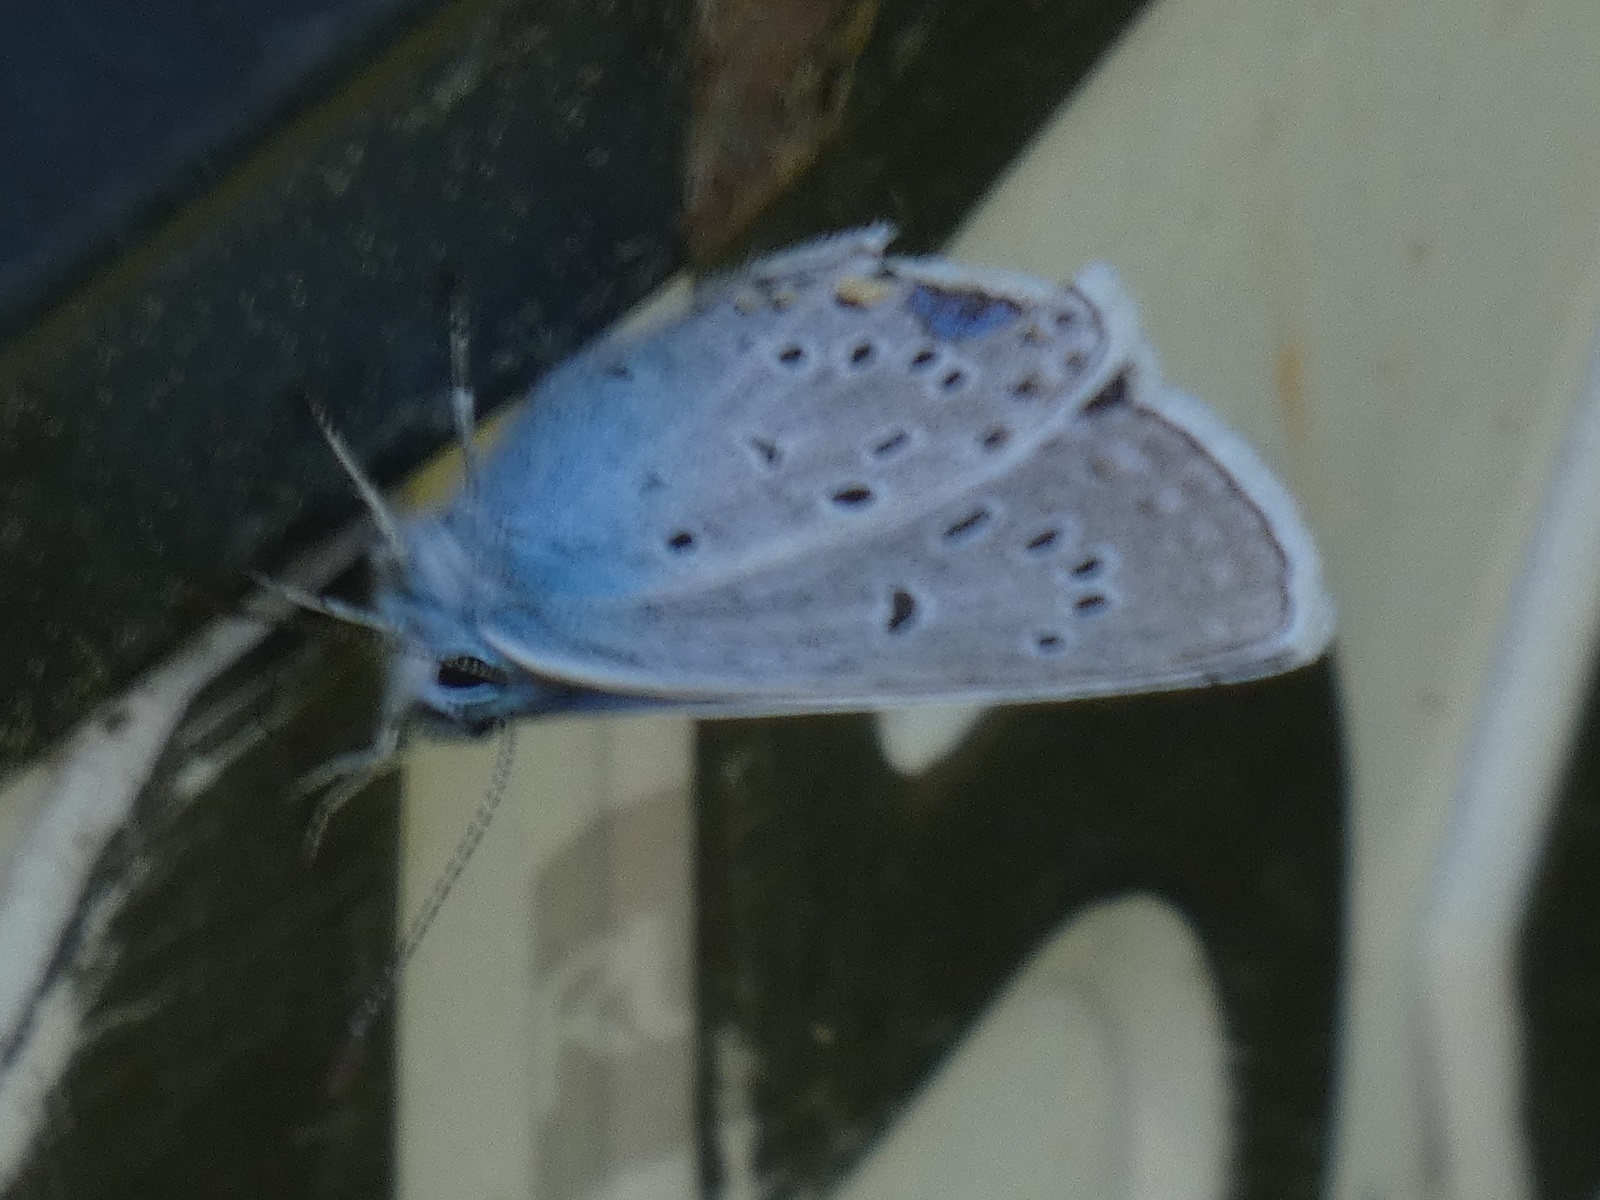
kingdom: Animalia
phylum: Arthropoda
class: Insecta
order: Lepidoptera
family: Lycaenidae
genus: Plebejus
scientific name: Plebejus amanda
